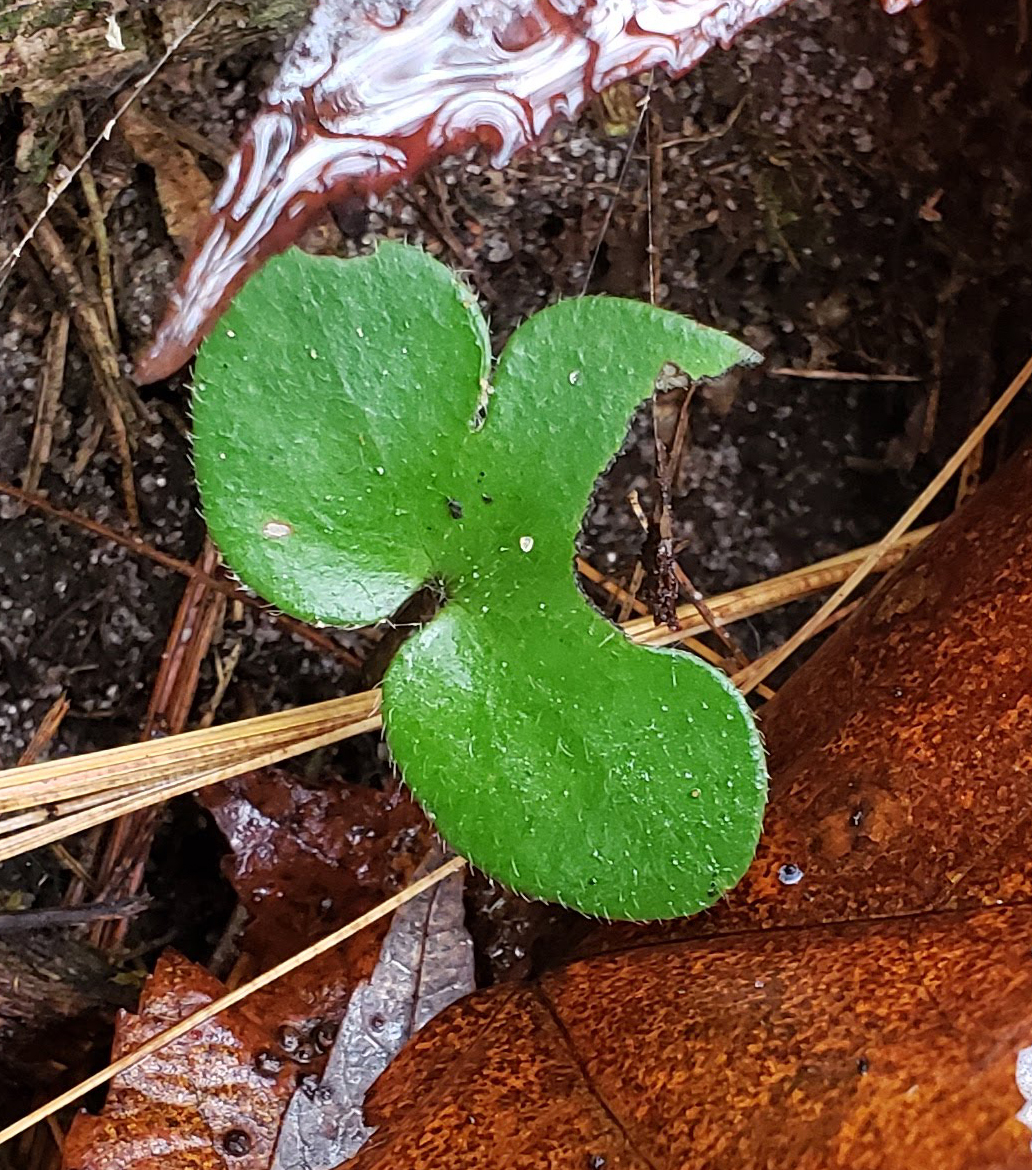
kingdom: Plantae
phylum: Tracheophyta
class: Magnoliopsida
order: Ranunculales
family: Ranunculaceae
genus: Hepatica
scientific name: Hepatica americana
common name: American hepatica
